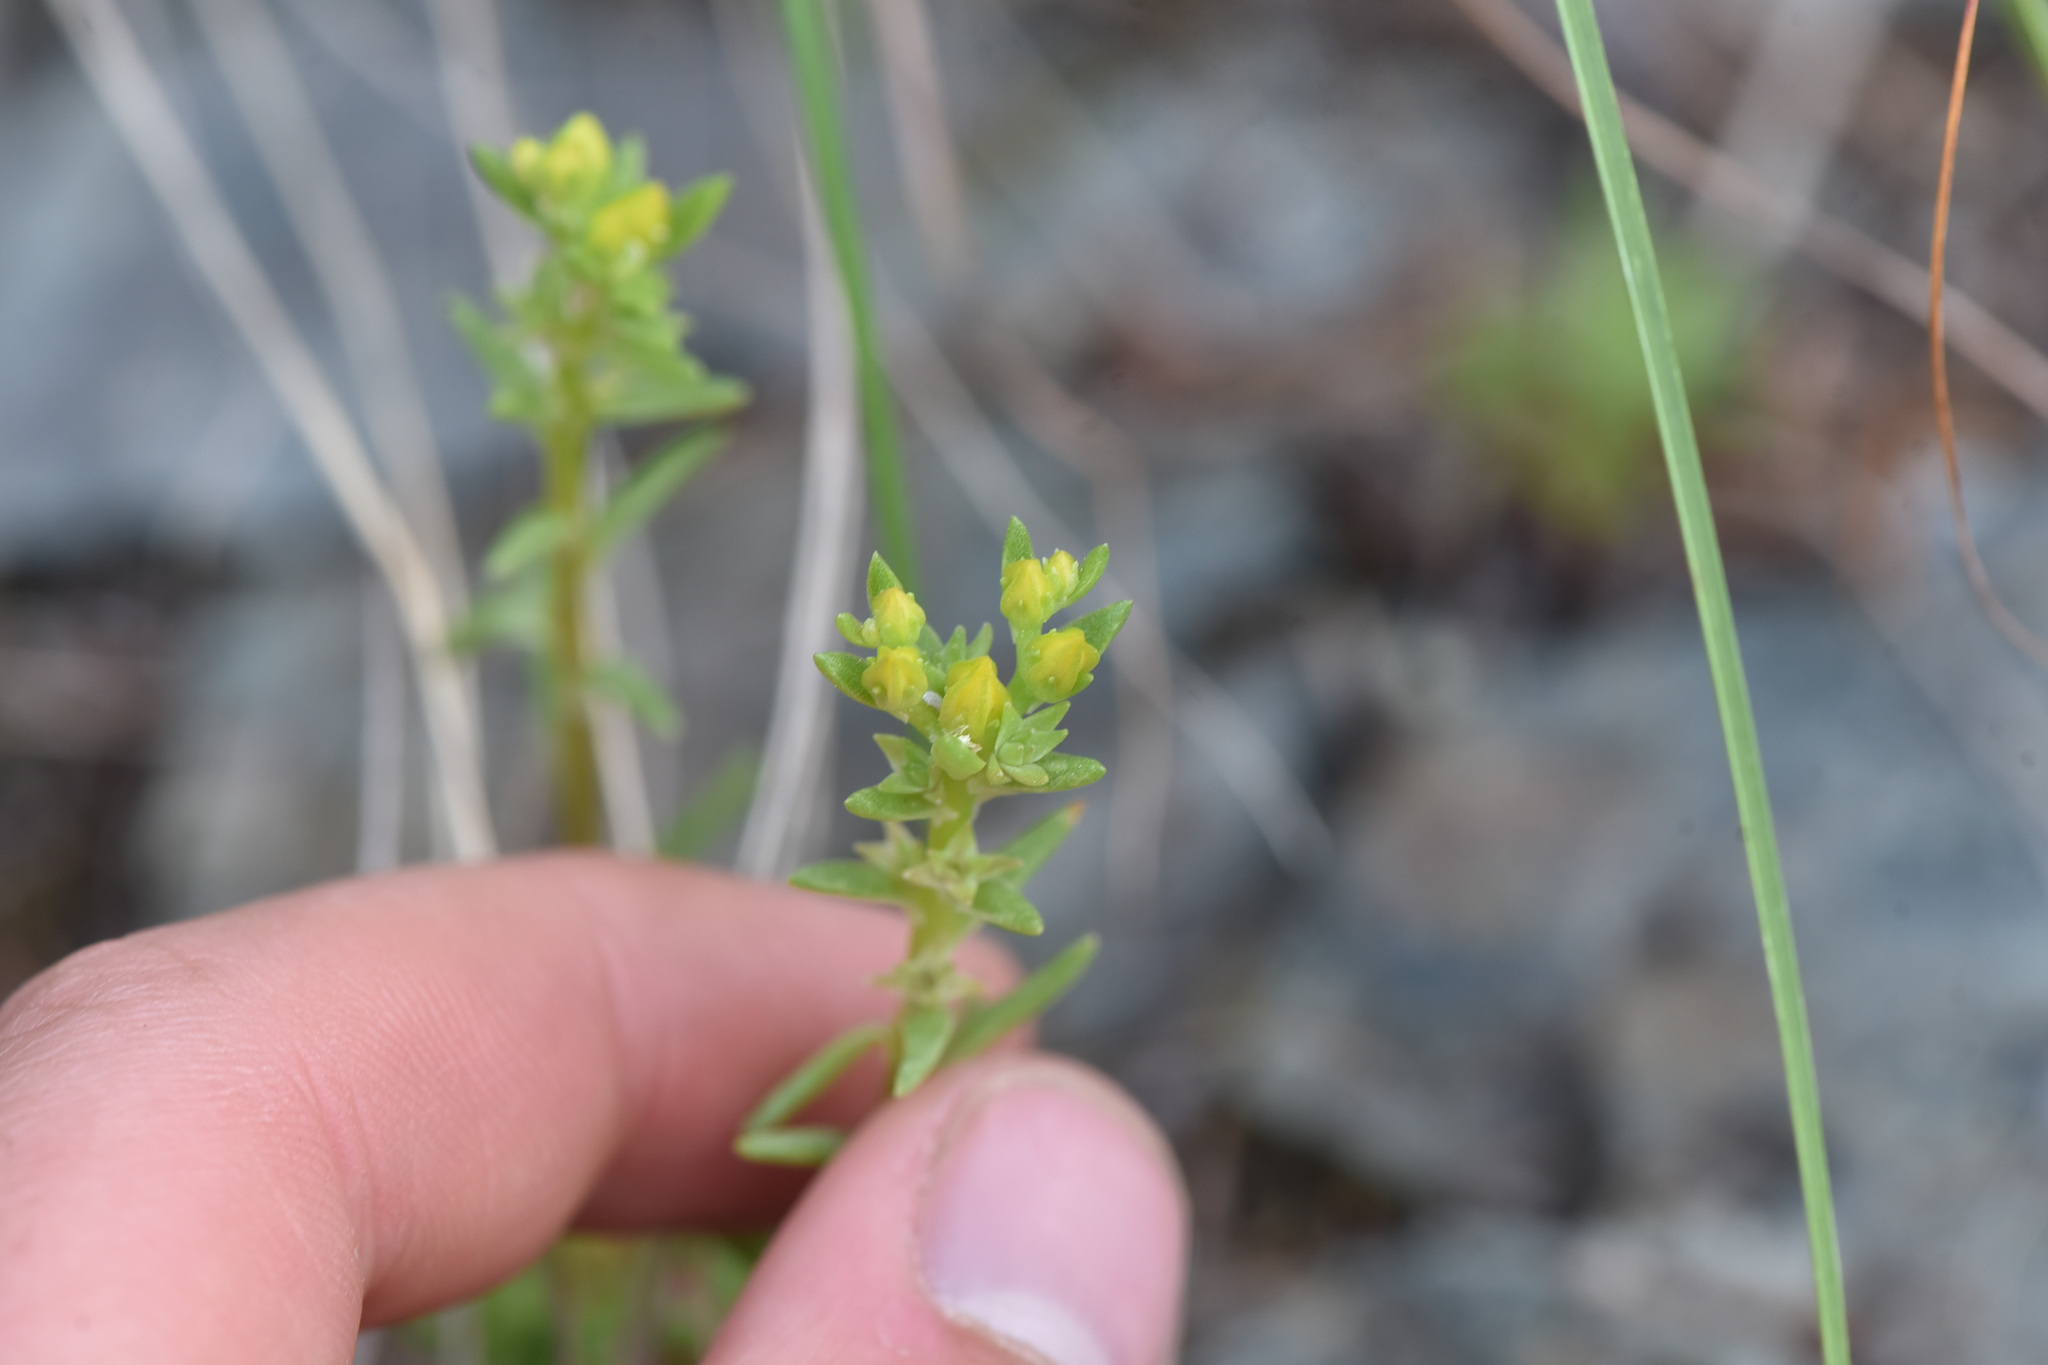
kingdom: Plantae
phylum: Tracheophyta
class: Magnoliopsida
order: Saxifragales
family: Crassulaceae
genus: Sedum
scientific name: Sedum stenopetalum
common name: Narrow-petaled stonecrop
